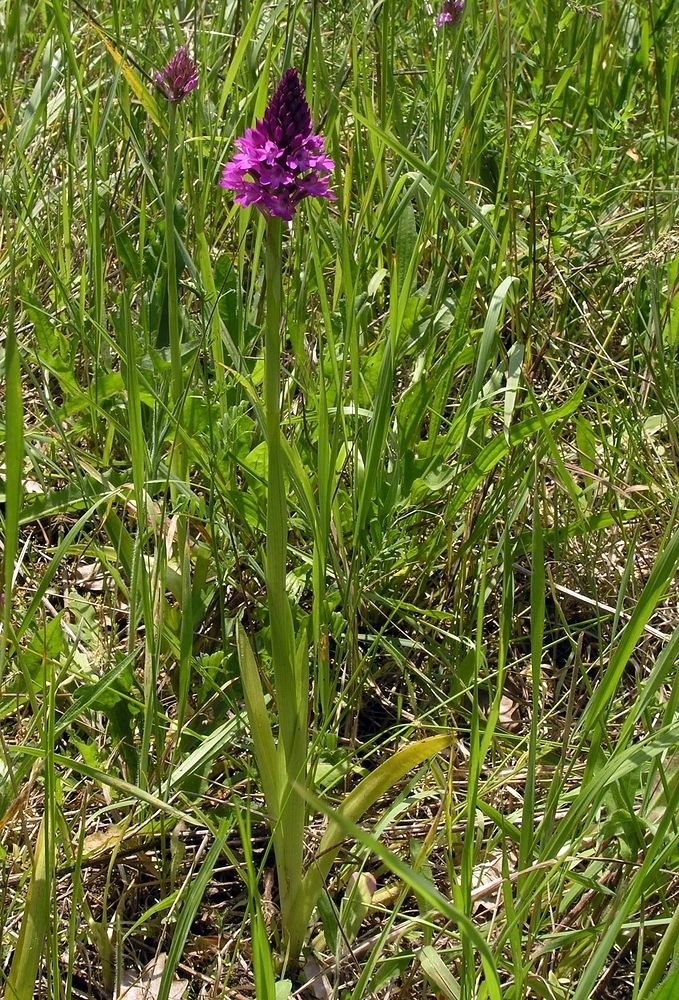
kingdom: Plantae
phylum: Tracheophyta
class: Liliopsida
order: Asparagales
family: Orchidaceae
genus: Anacamptis
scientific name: Anacamptis pyramidalis
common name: Pyramidal orchid
